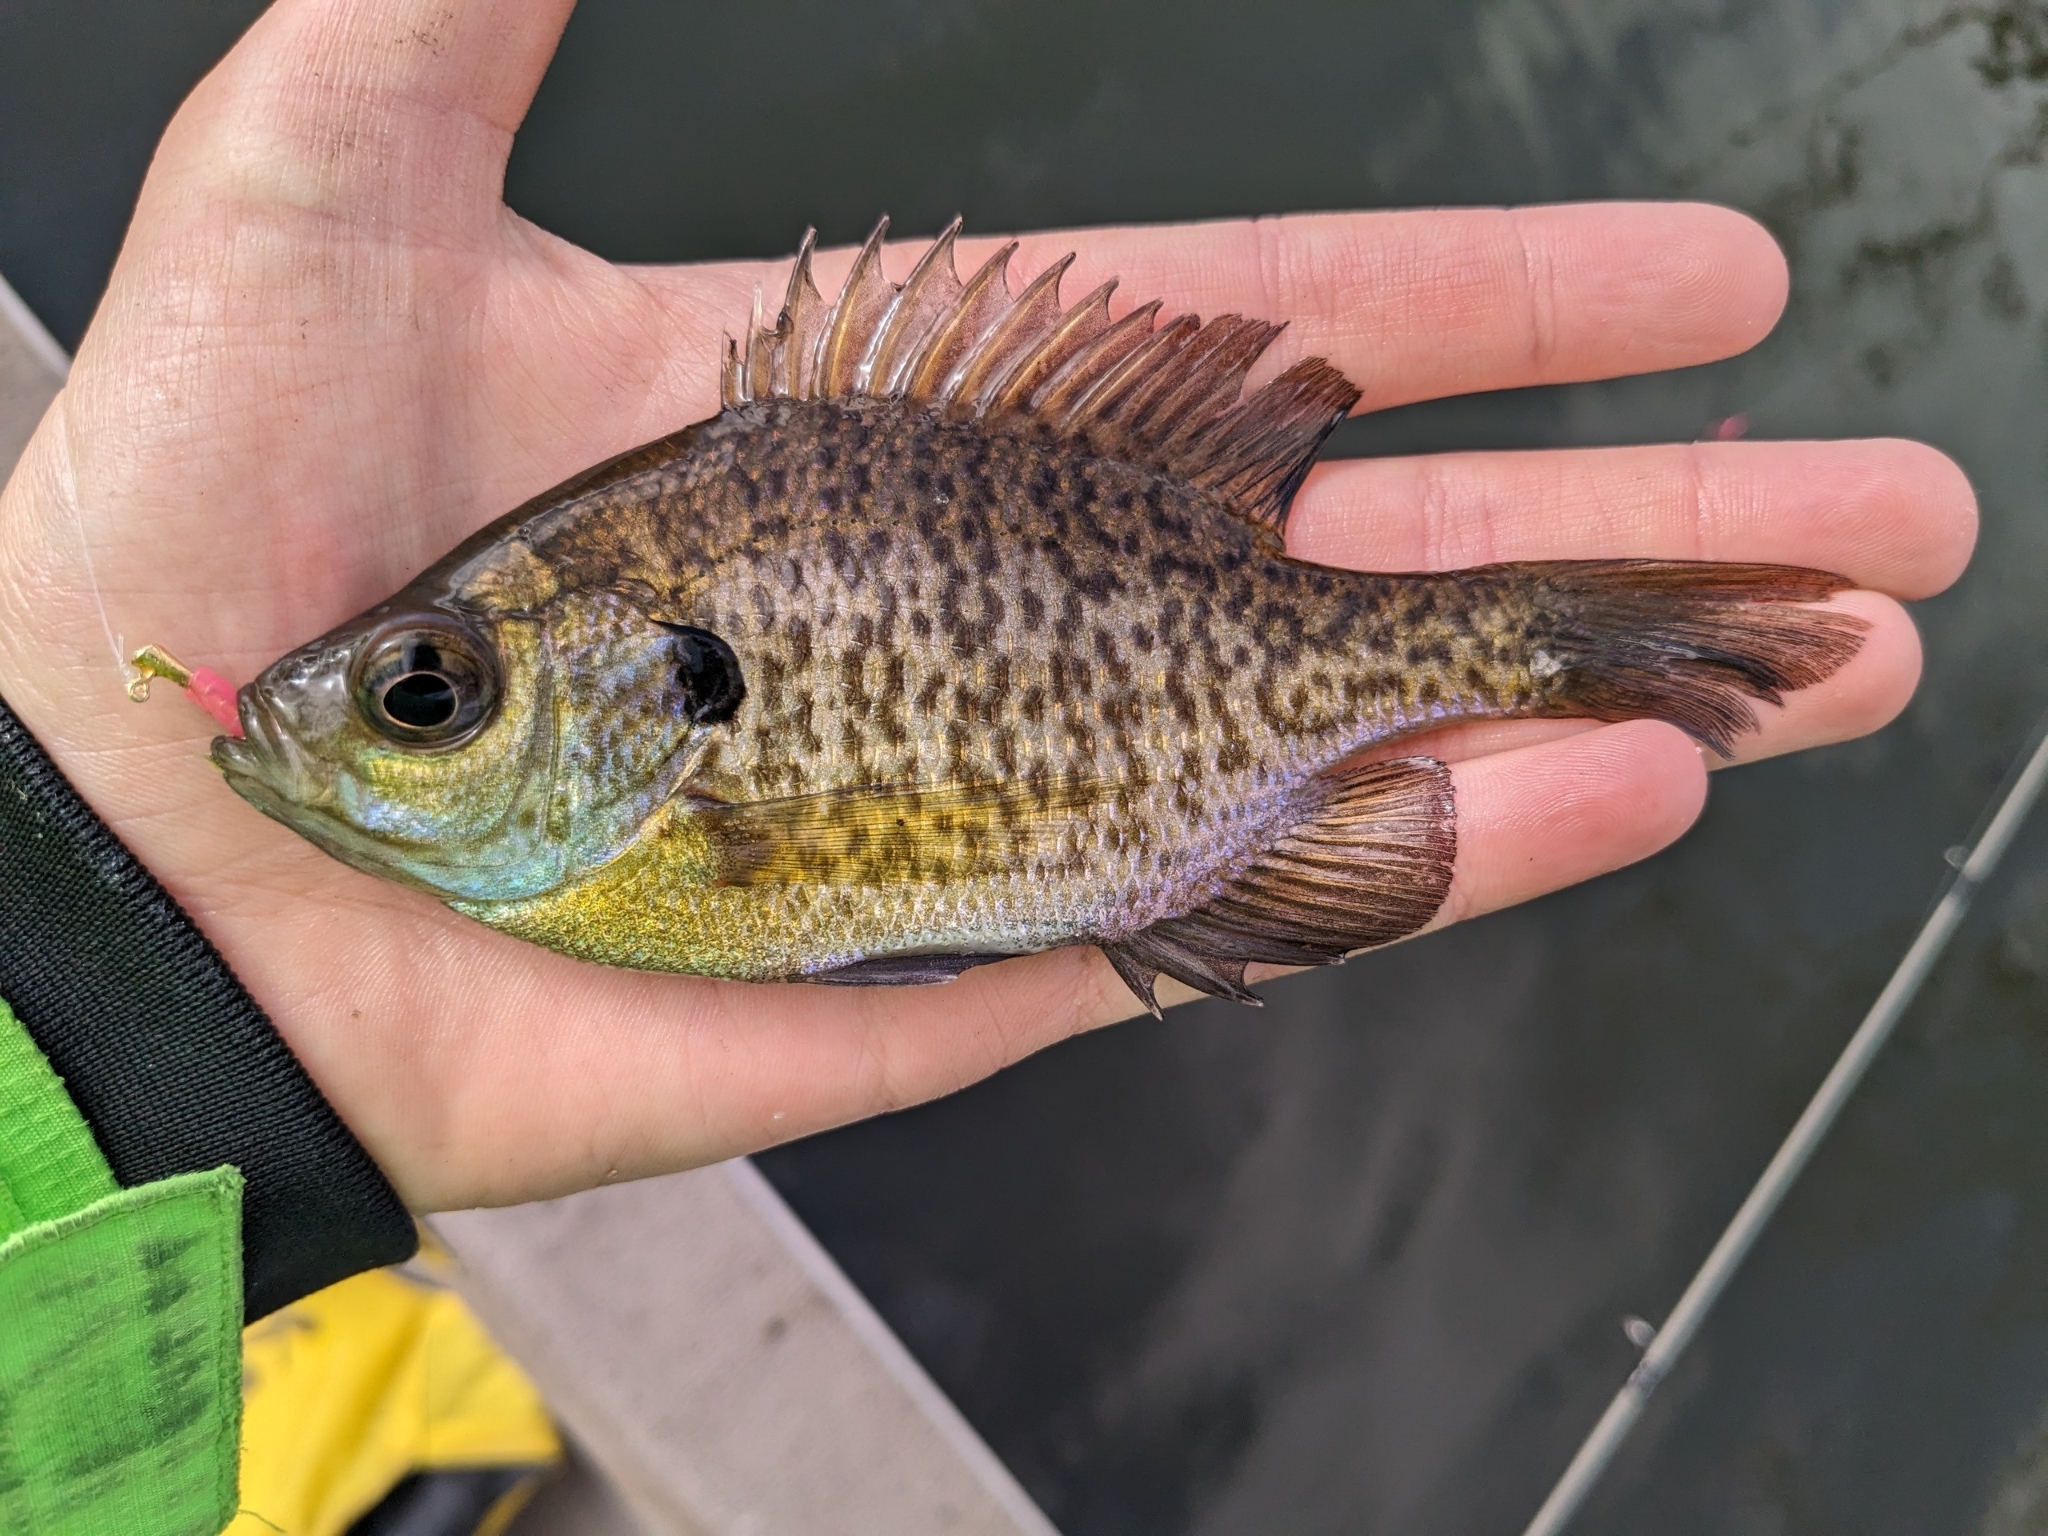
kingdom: Animalia
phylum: Chordata
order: Perciformes
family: Centrarchidae
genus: Lepomis
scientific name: Lepomis macrochirus
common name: Bluegill
